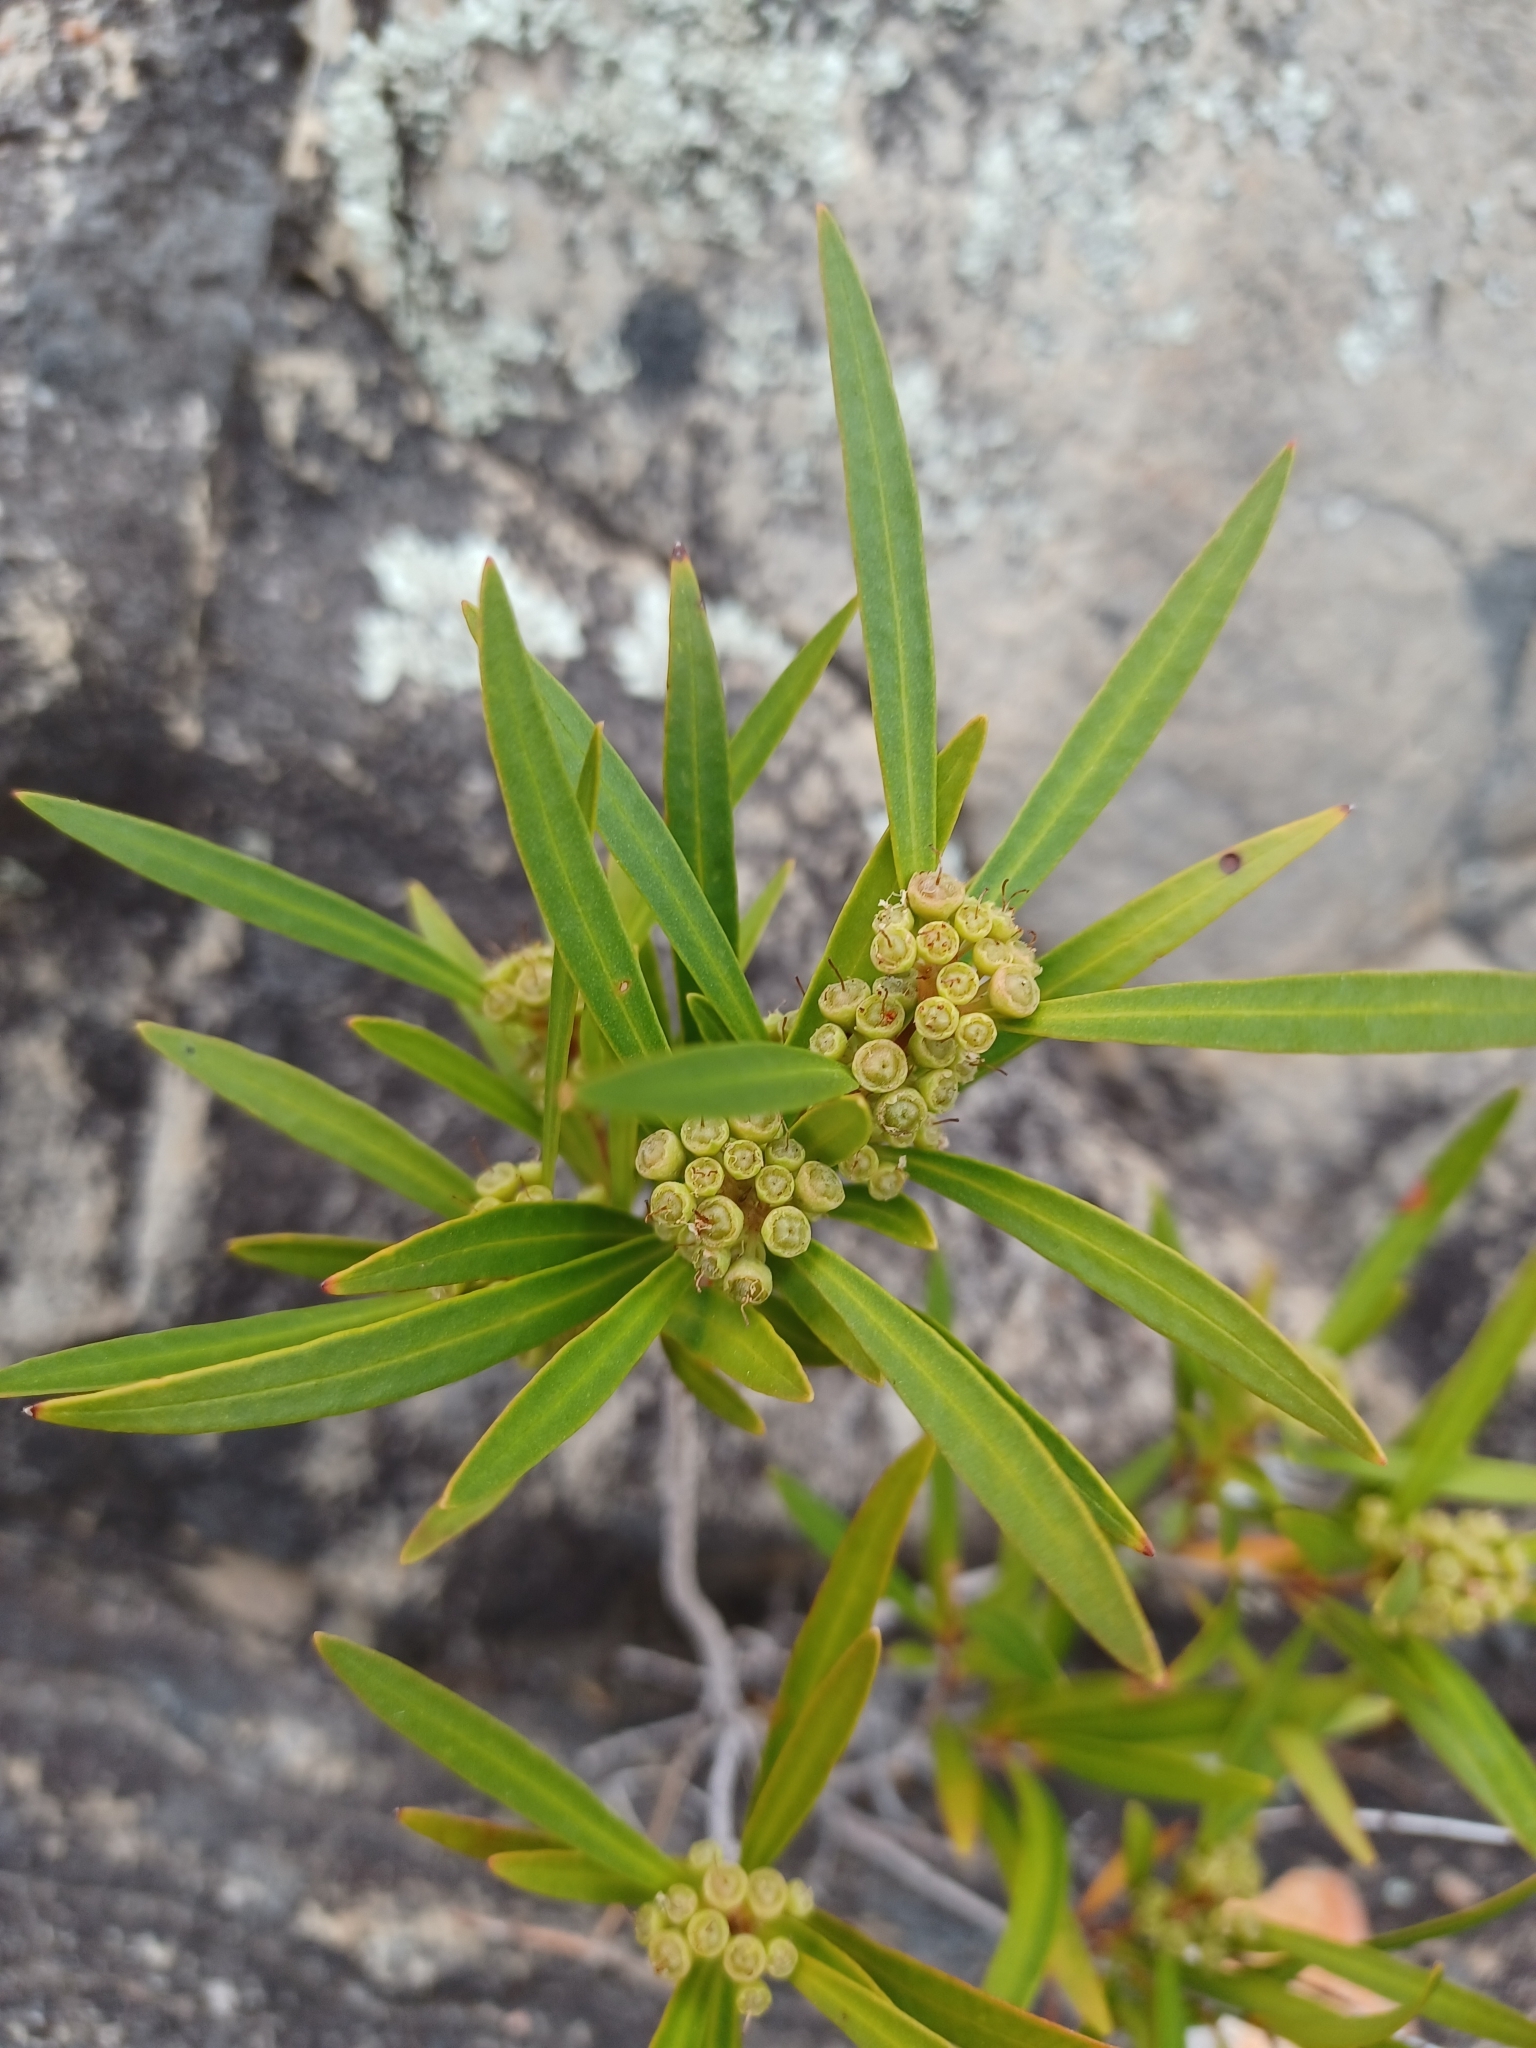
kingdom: Plantae
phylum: Tracheophyta
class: Magnoliopsida
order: Myrtales
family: Myrtaceae
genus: Callistemon
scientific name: Callistemon lanceolatus
